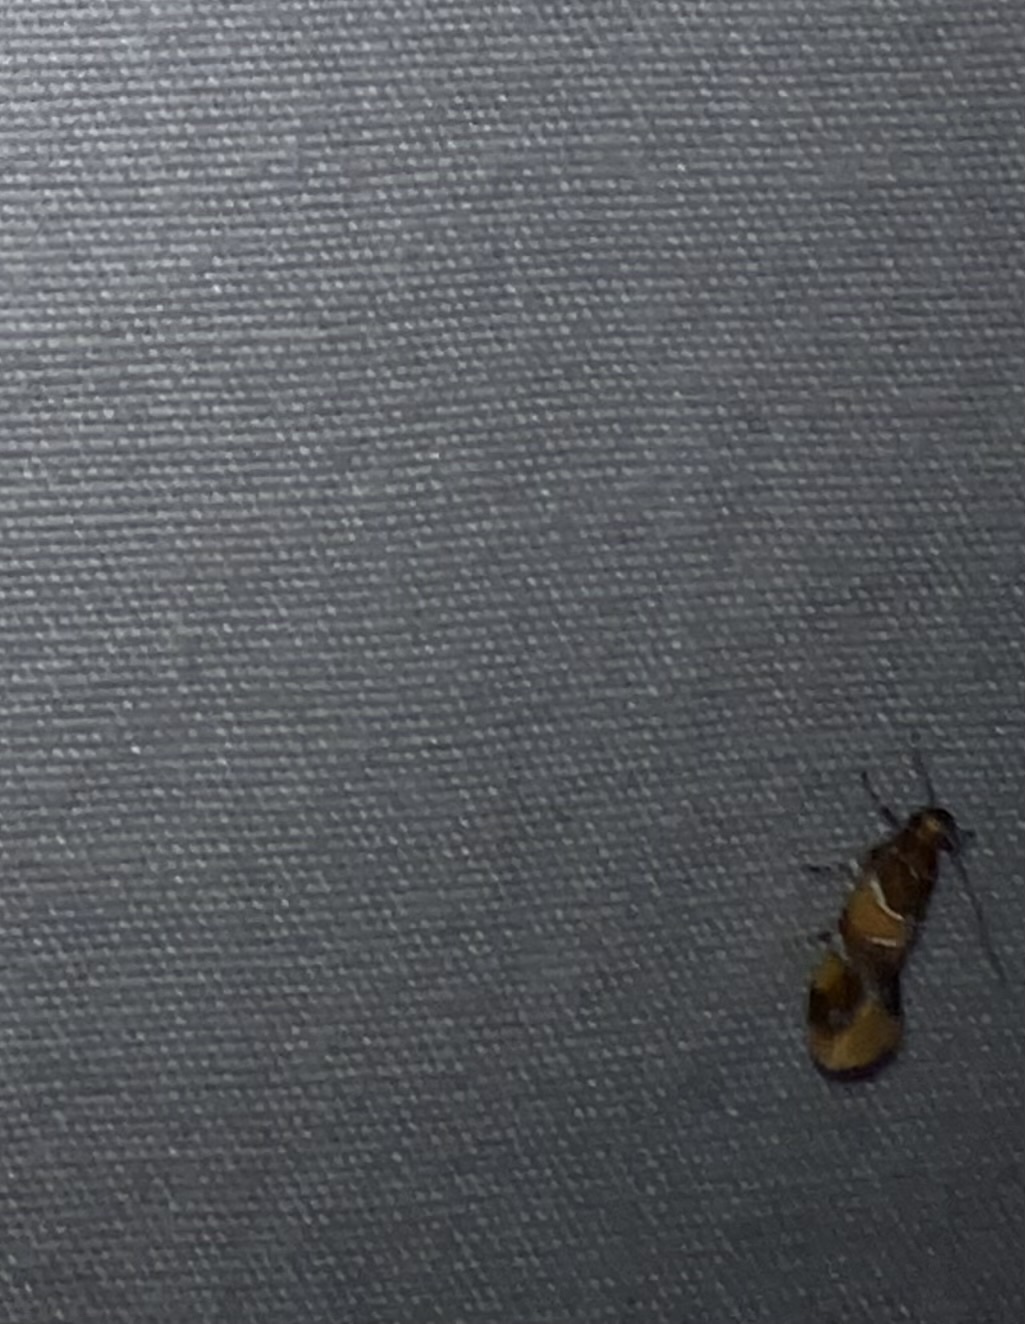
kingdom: Animalia
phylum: Arthropoda
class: Insecta
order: Lepidoptera
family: Oecophoridae
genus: Callima
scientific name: Callima argenticinctella
